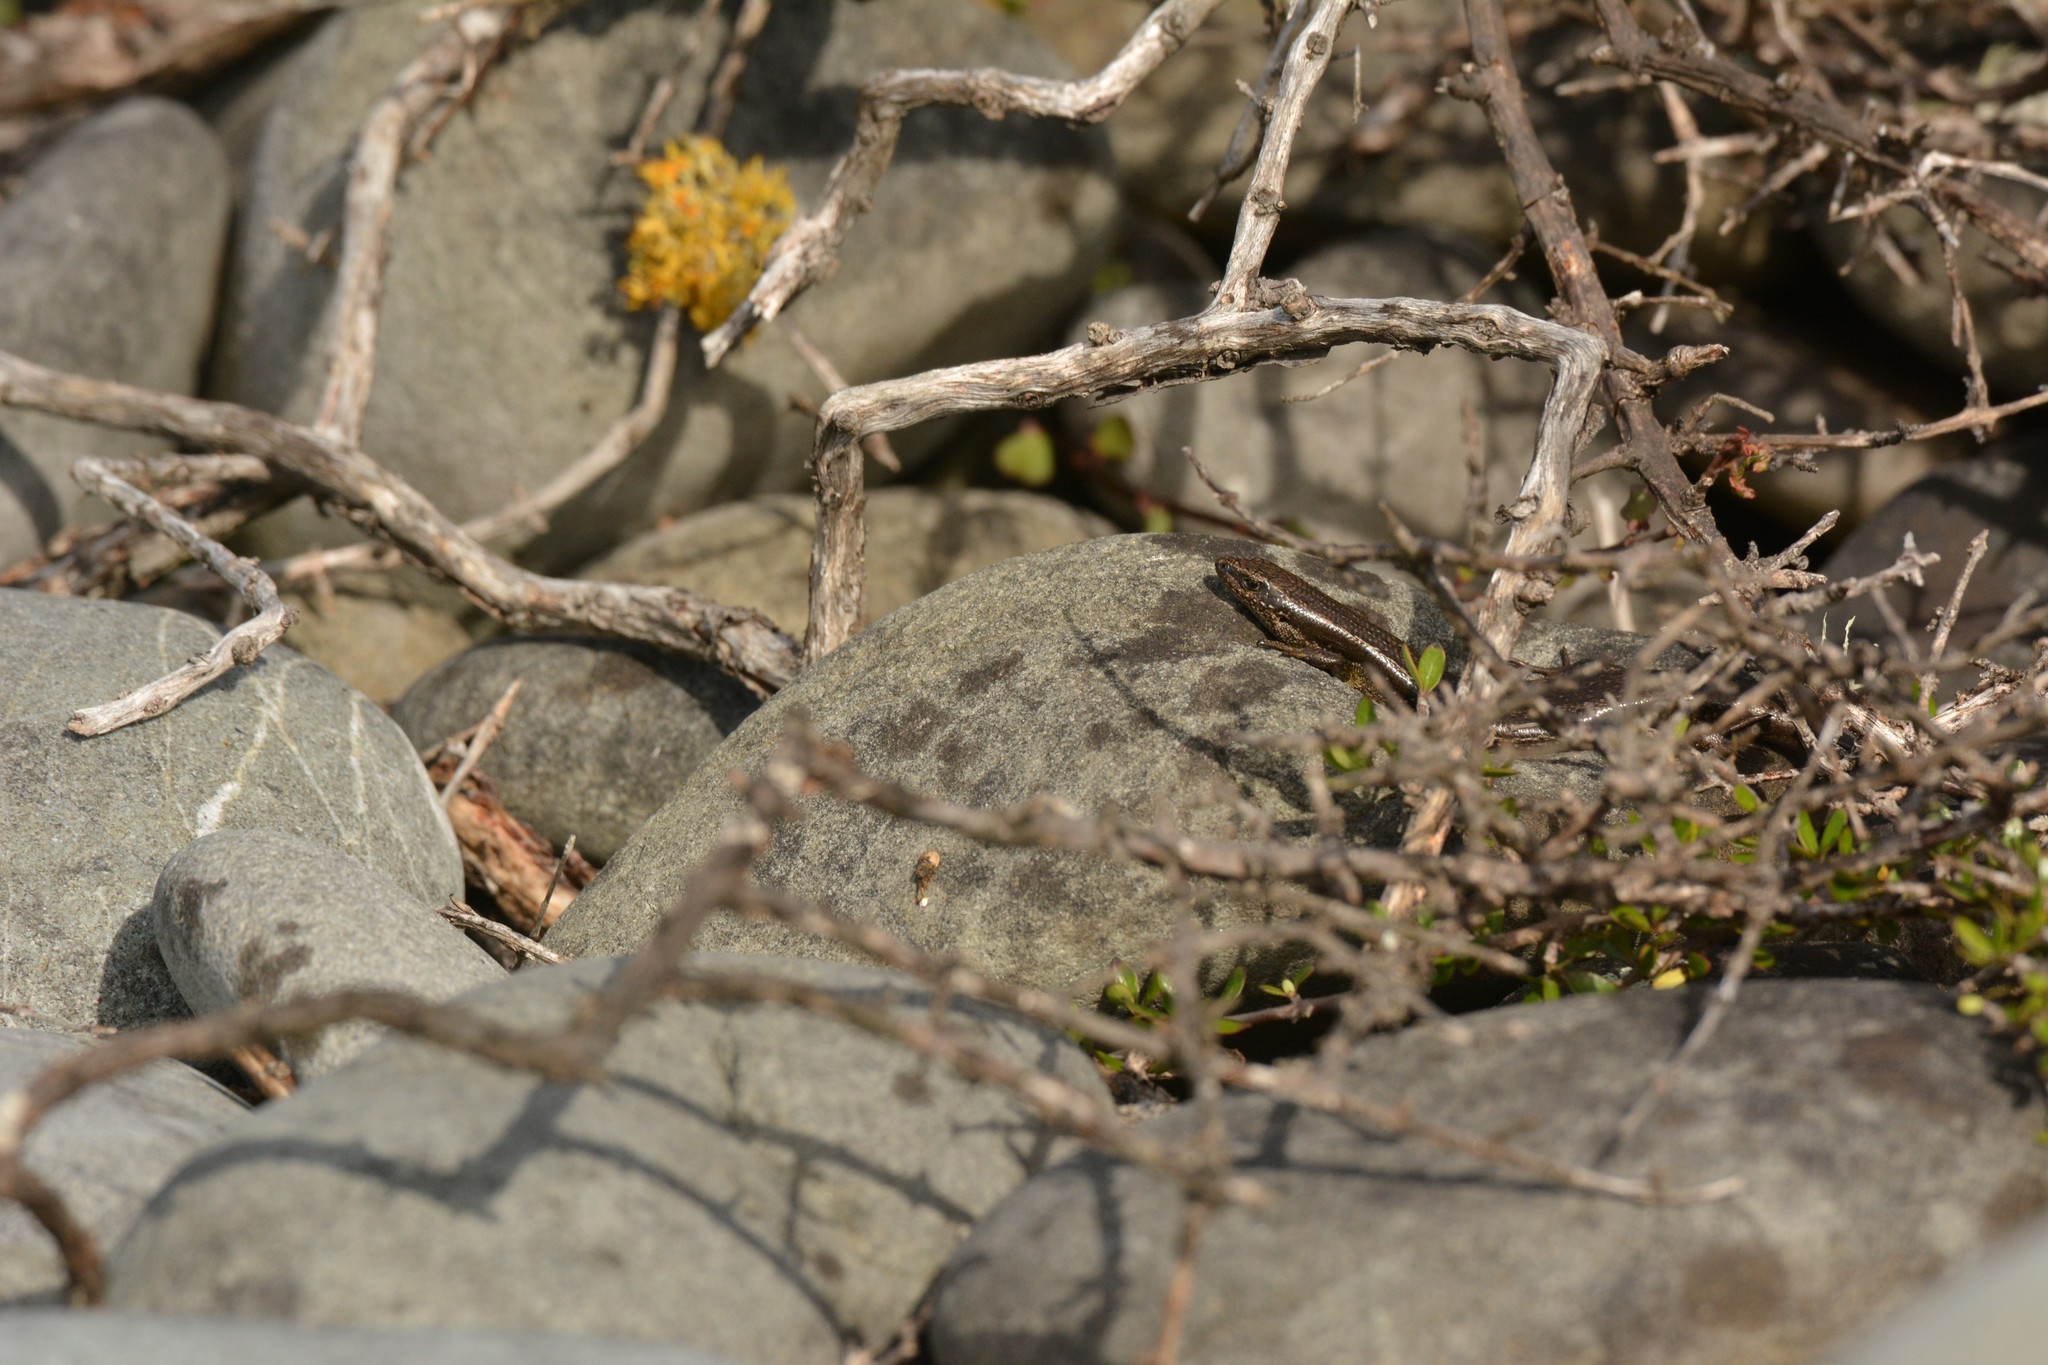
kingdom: Animalia
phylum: Chordata
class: Squamata
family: Scincidae
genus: Oligosoma
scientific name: Oligosoma polychroma
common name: Common new zealand skink
